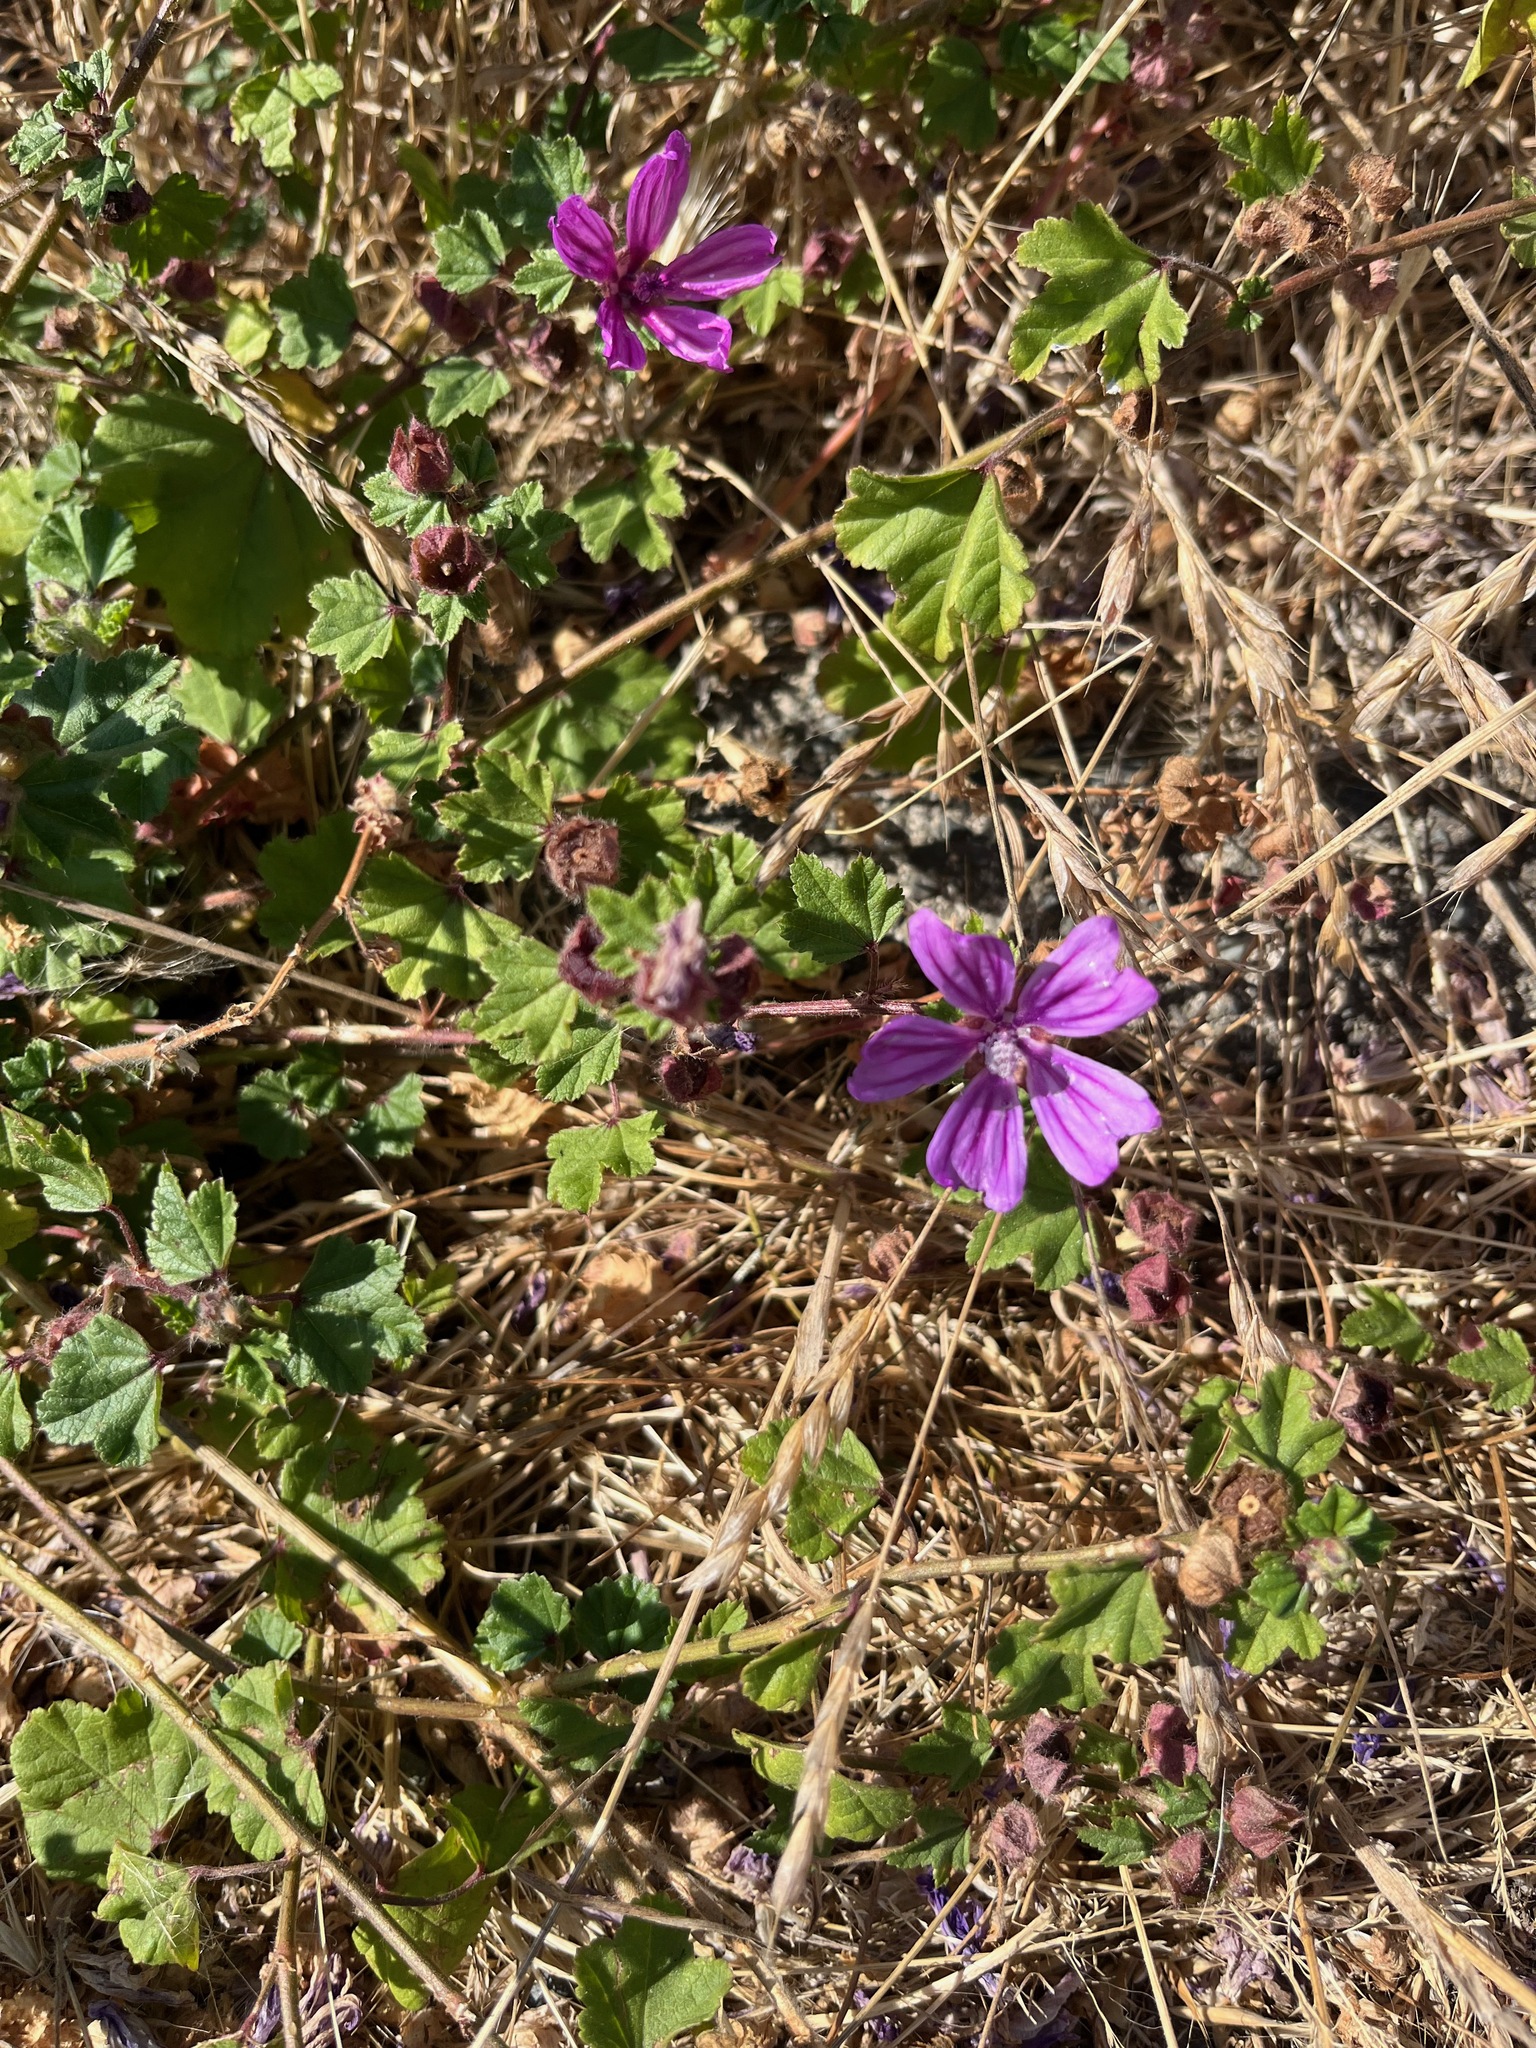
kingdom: Plantae
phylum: Tracheophyta
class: Magnoliopsida
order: Malvales
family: Malvaceae
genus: Malva
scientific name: Malva sylvestris
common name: Common mallow
